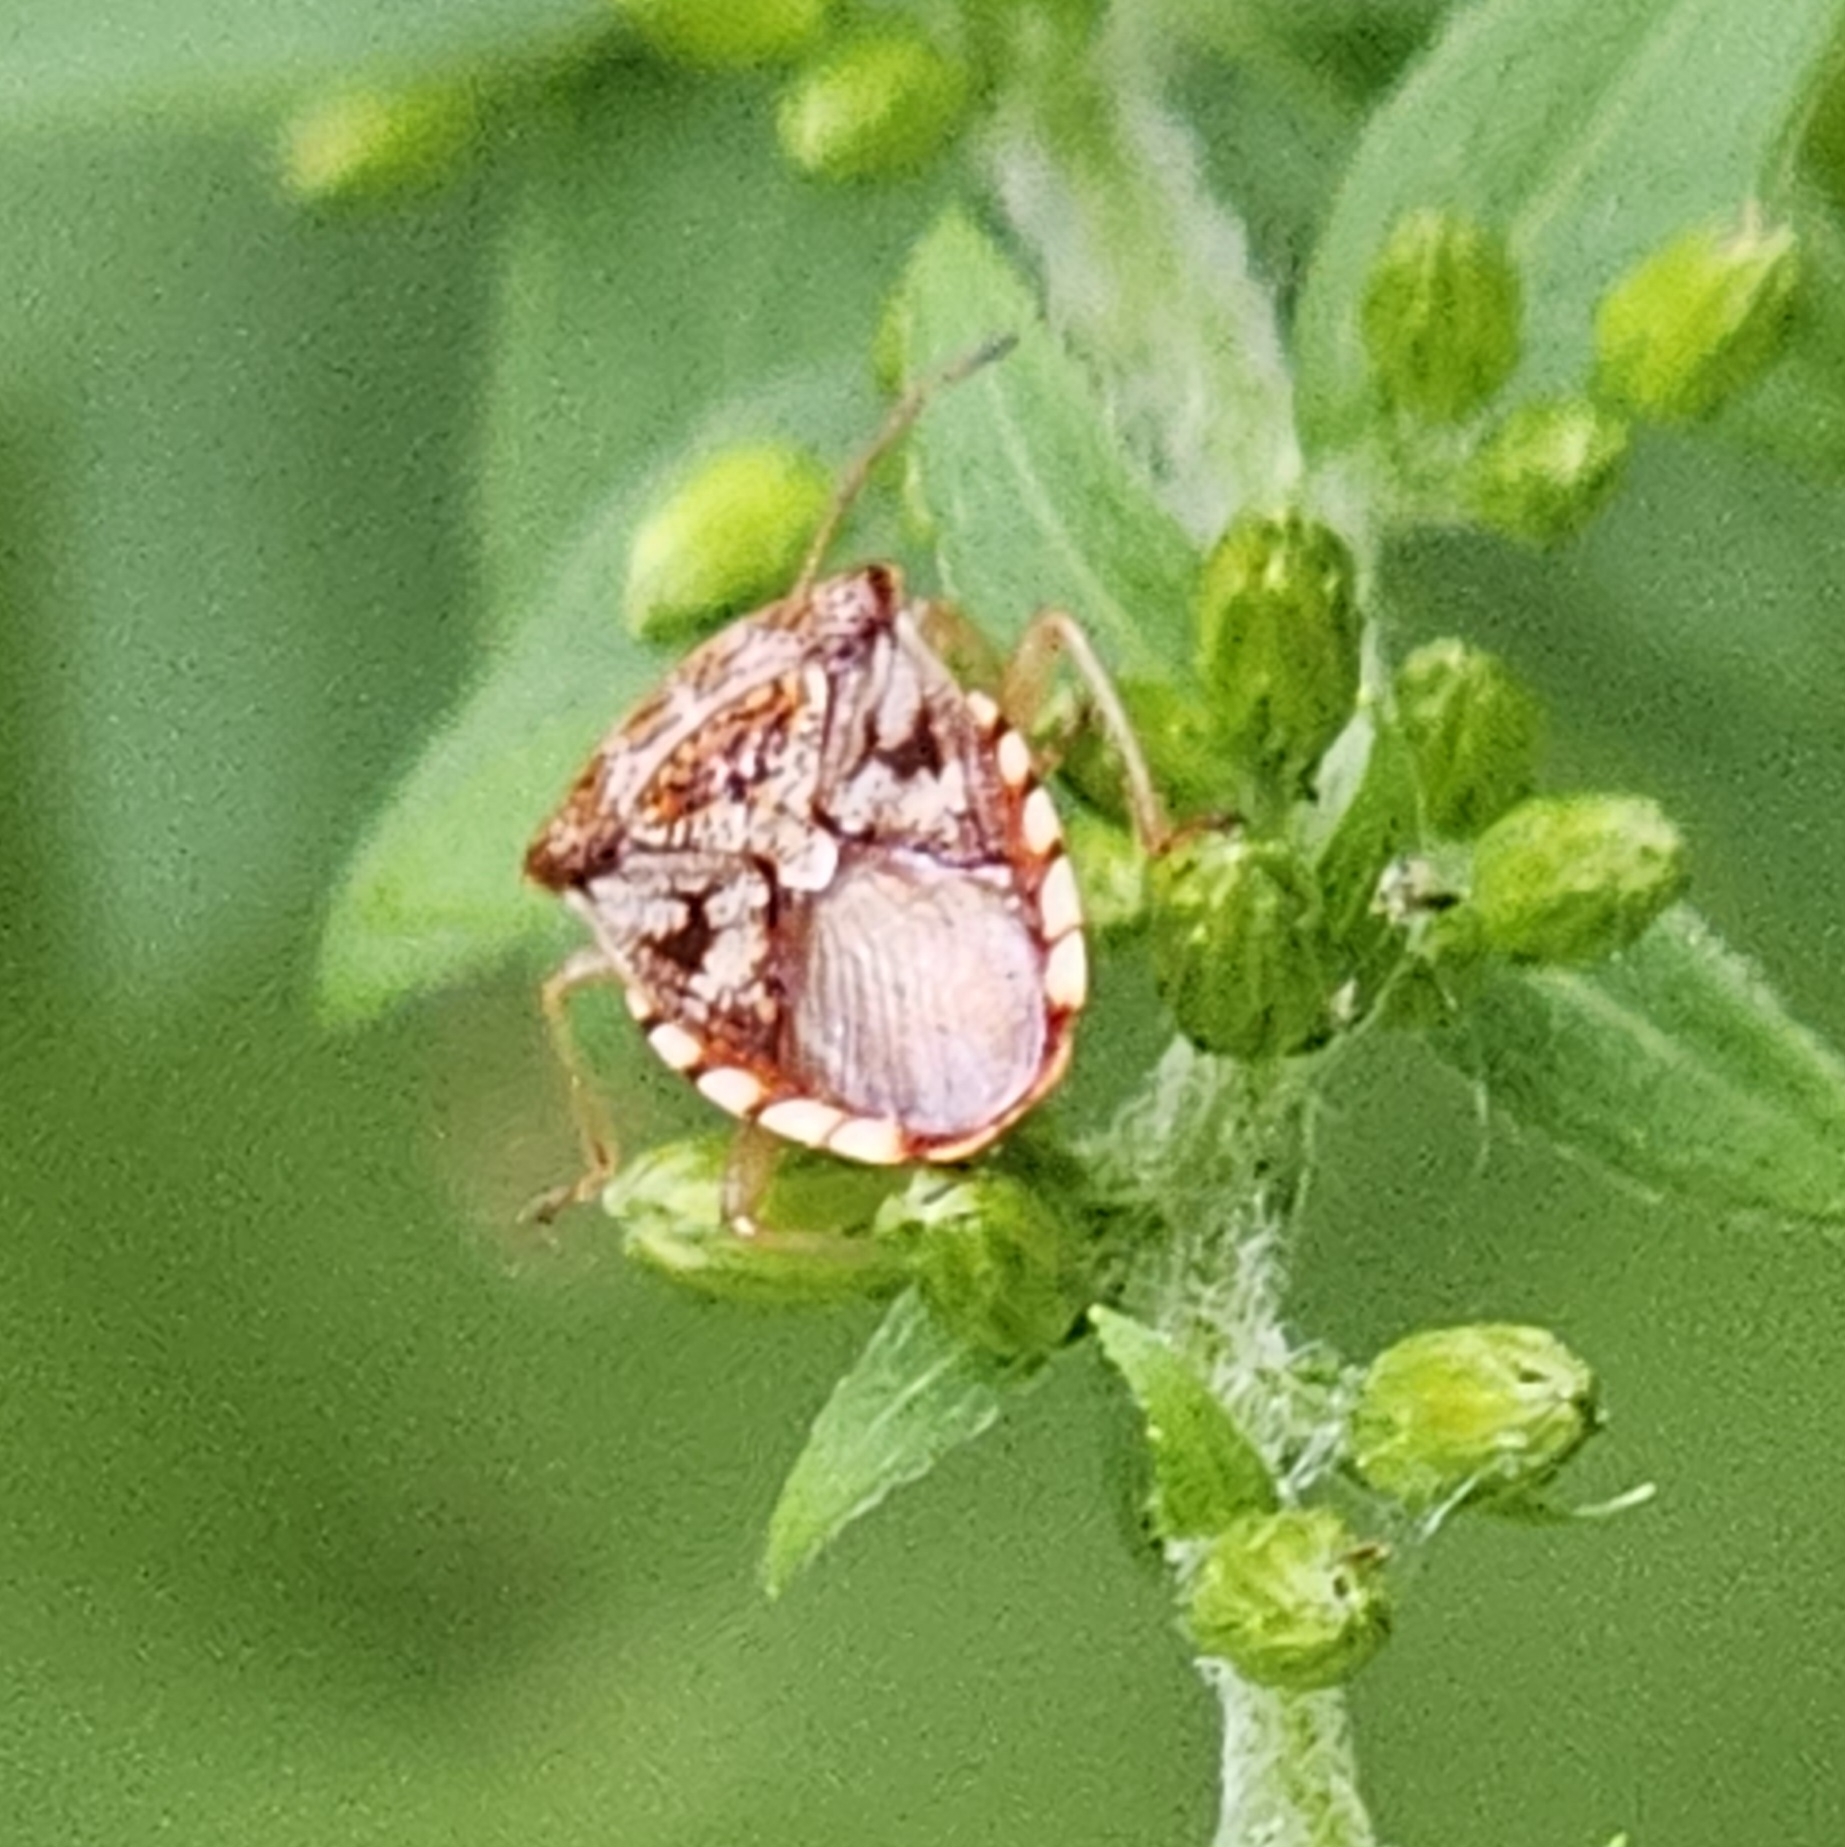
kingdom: Animalia
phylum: Arthropoda
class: Insecta
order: Hemiptera
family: Acanthosomatidae
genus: Elasmucha
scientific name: Elasmucha lateralis
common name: Shield bug
